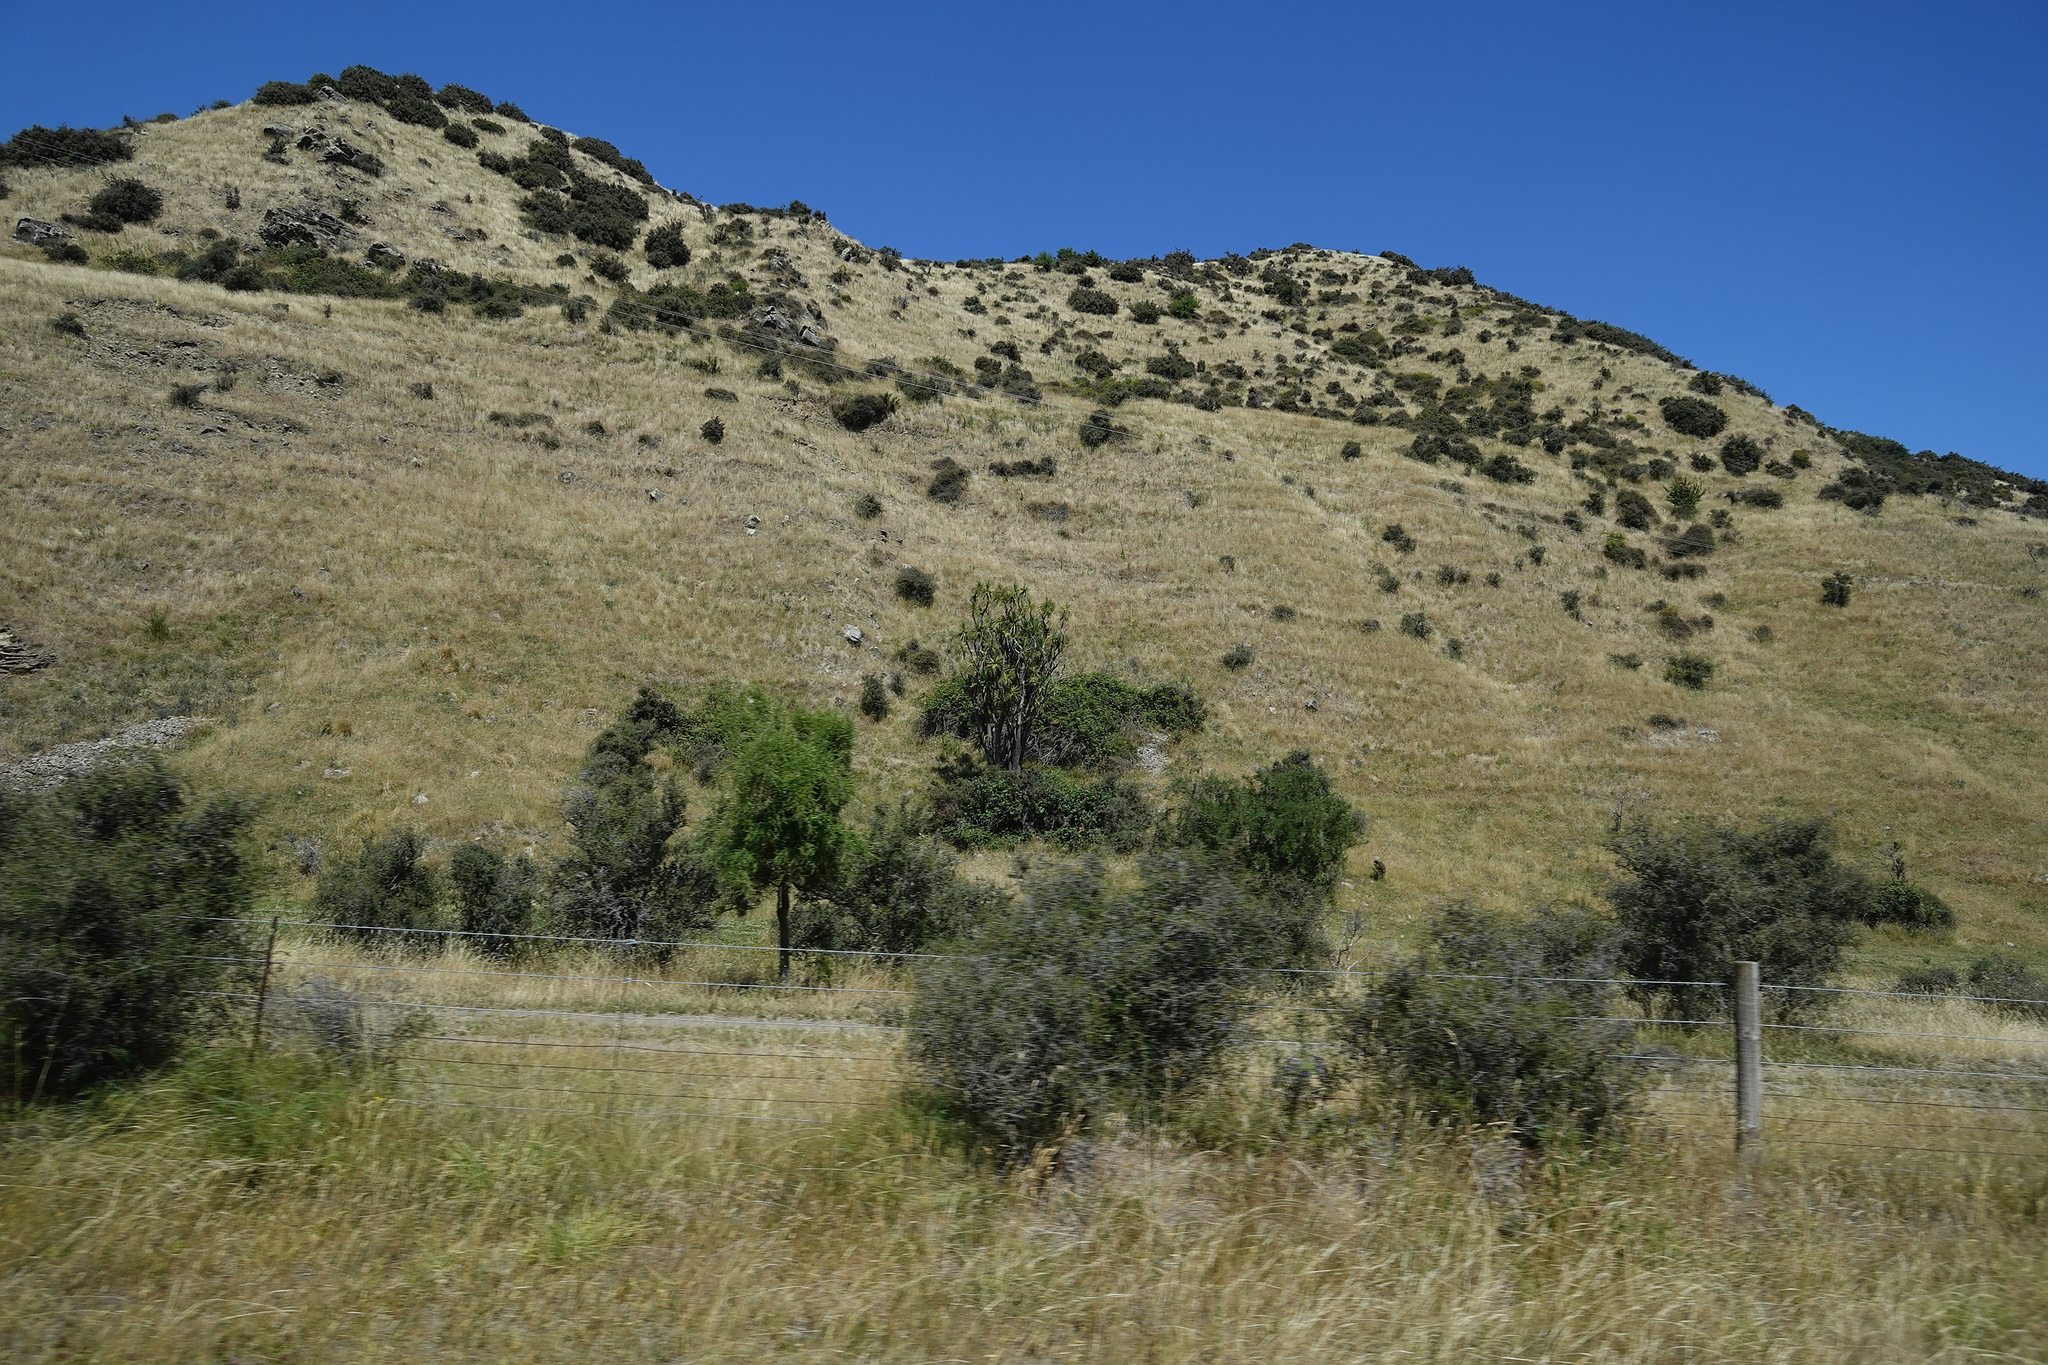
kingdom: Plantae
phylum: Tracheophyta
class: Liliopsida
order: Asparagales
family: Asparagaceae
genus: Cordyline
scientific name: Cordyline australis
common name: Cabbage-palm
